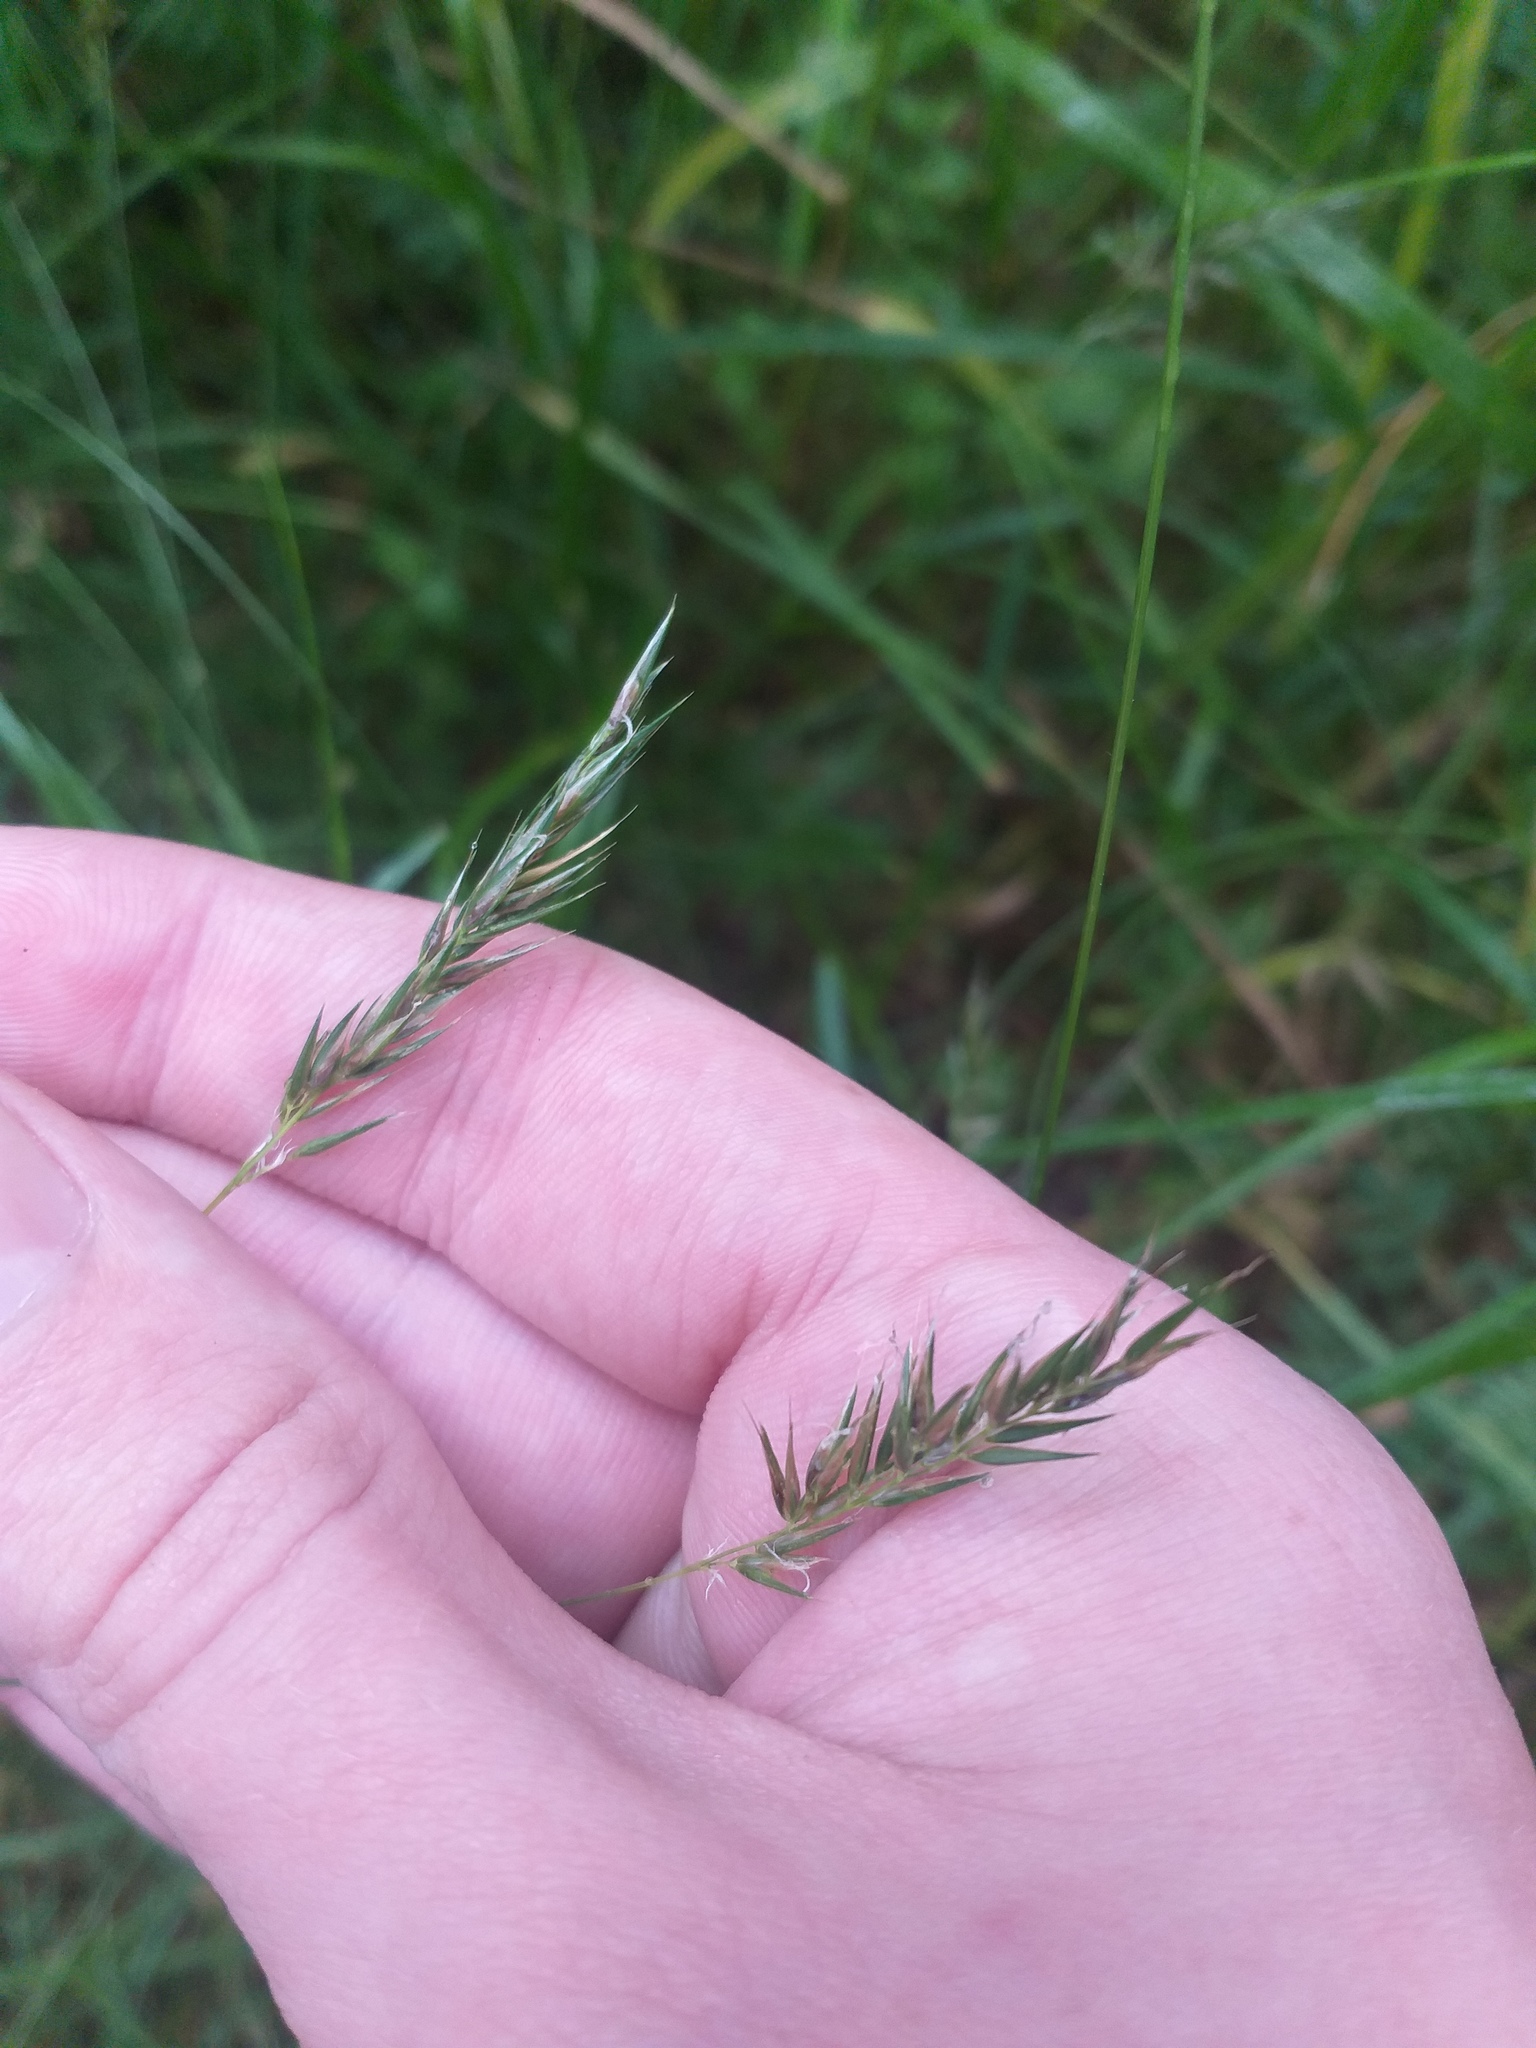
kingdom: Plantae
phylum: Tracheophyta
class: Liliopsida
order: Poales
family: Poaceae
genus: Anthoxanthum
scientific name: Anthoxanthum odoratum
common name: Sweet vernalgrass
